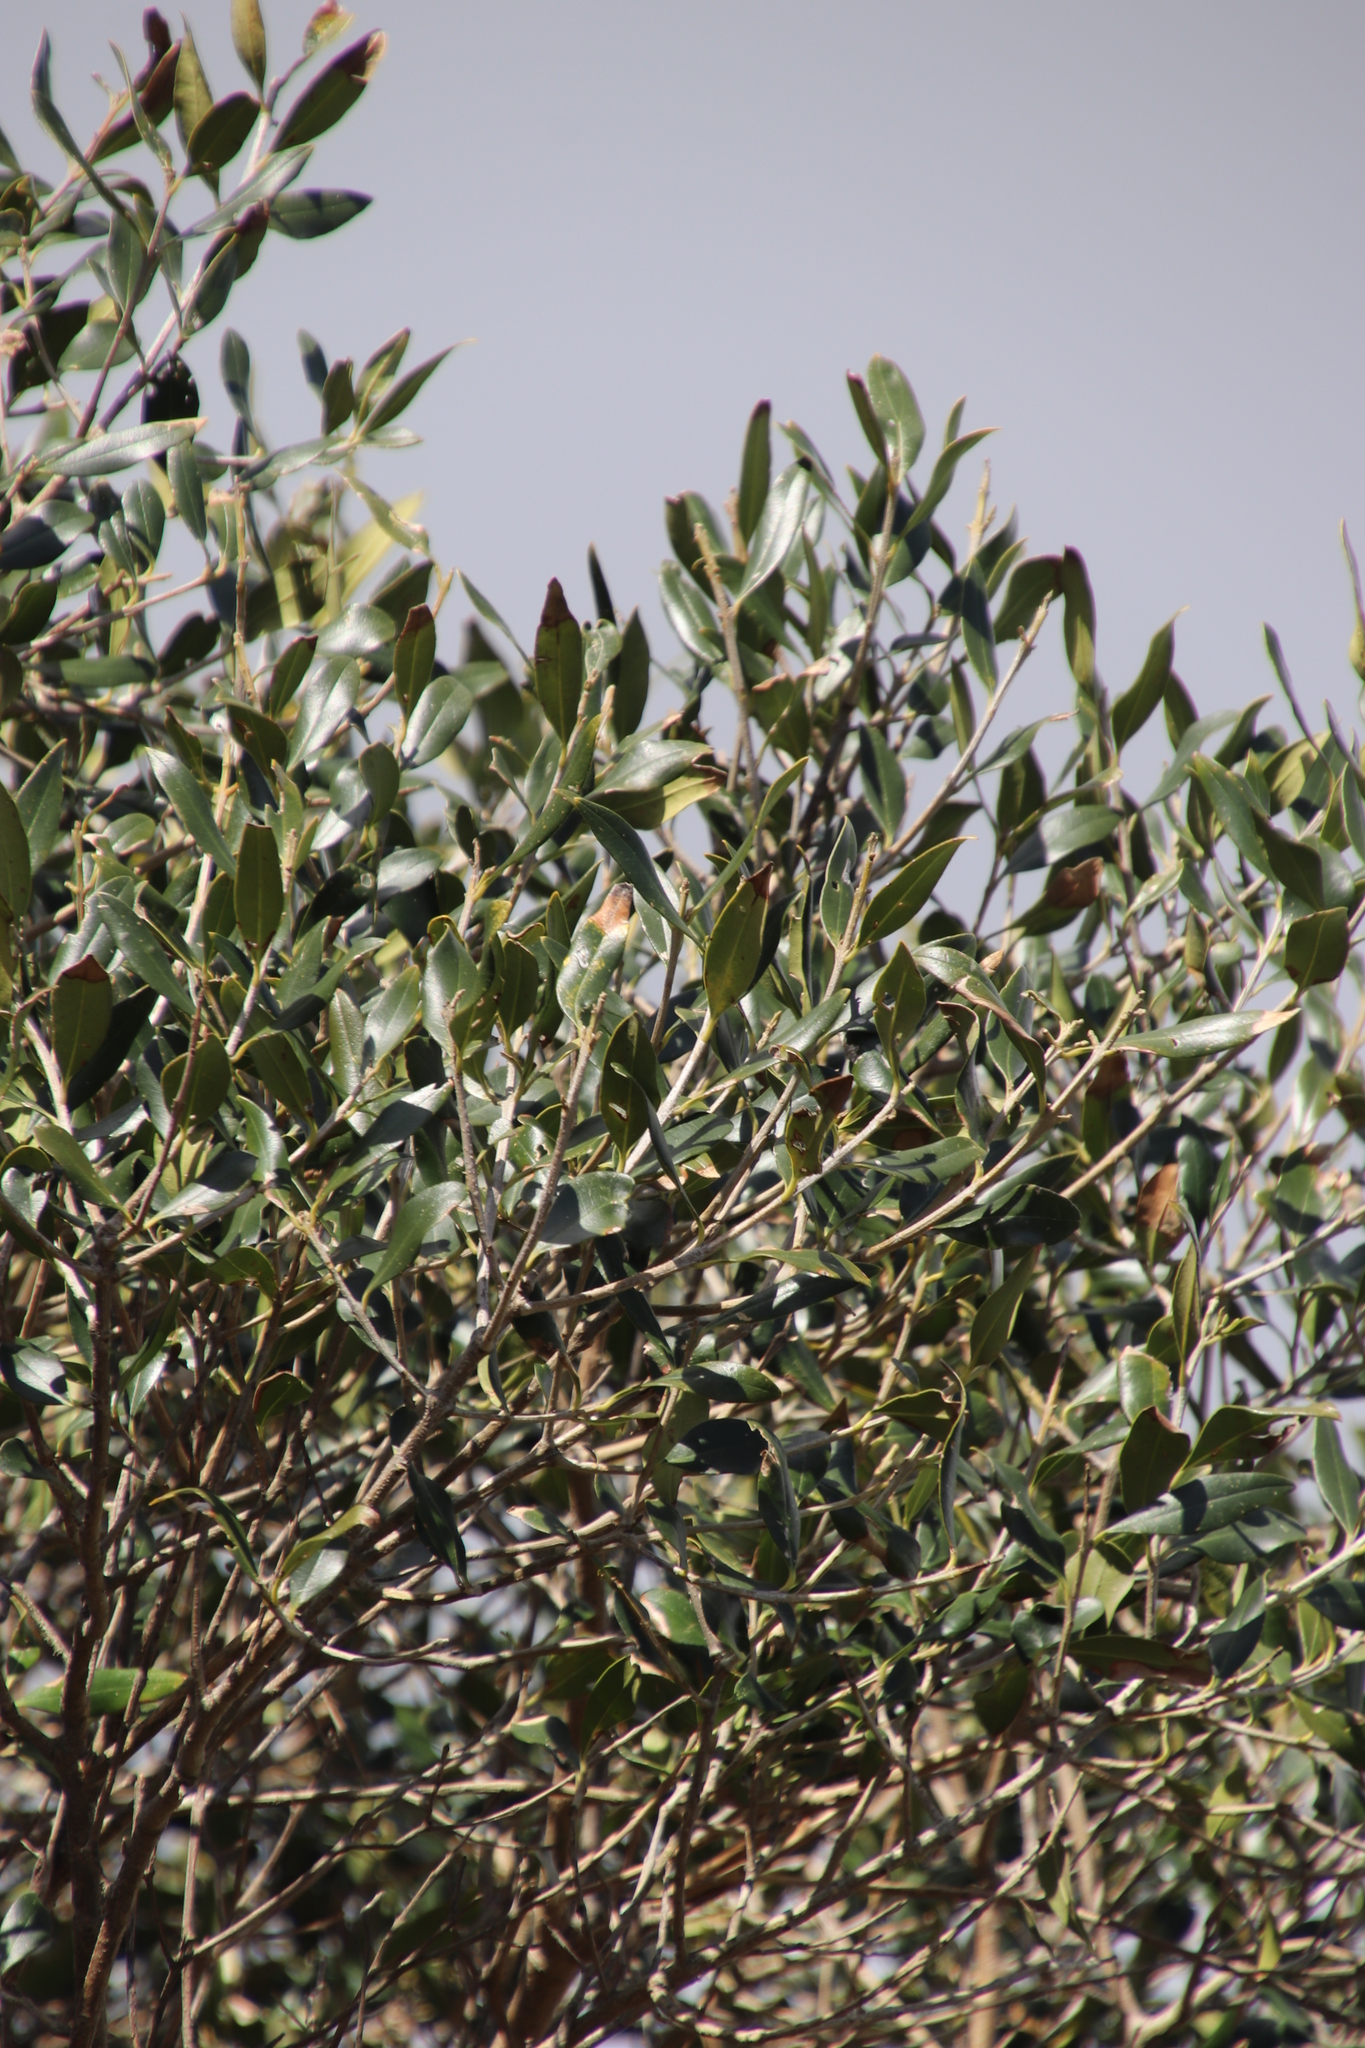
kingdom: Plantae
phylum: Tracheophyta
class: Magnoliopsida
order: Lamiales
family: Oleaceae
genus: Olea
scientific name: Olea europaea
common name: Olive
